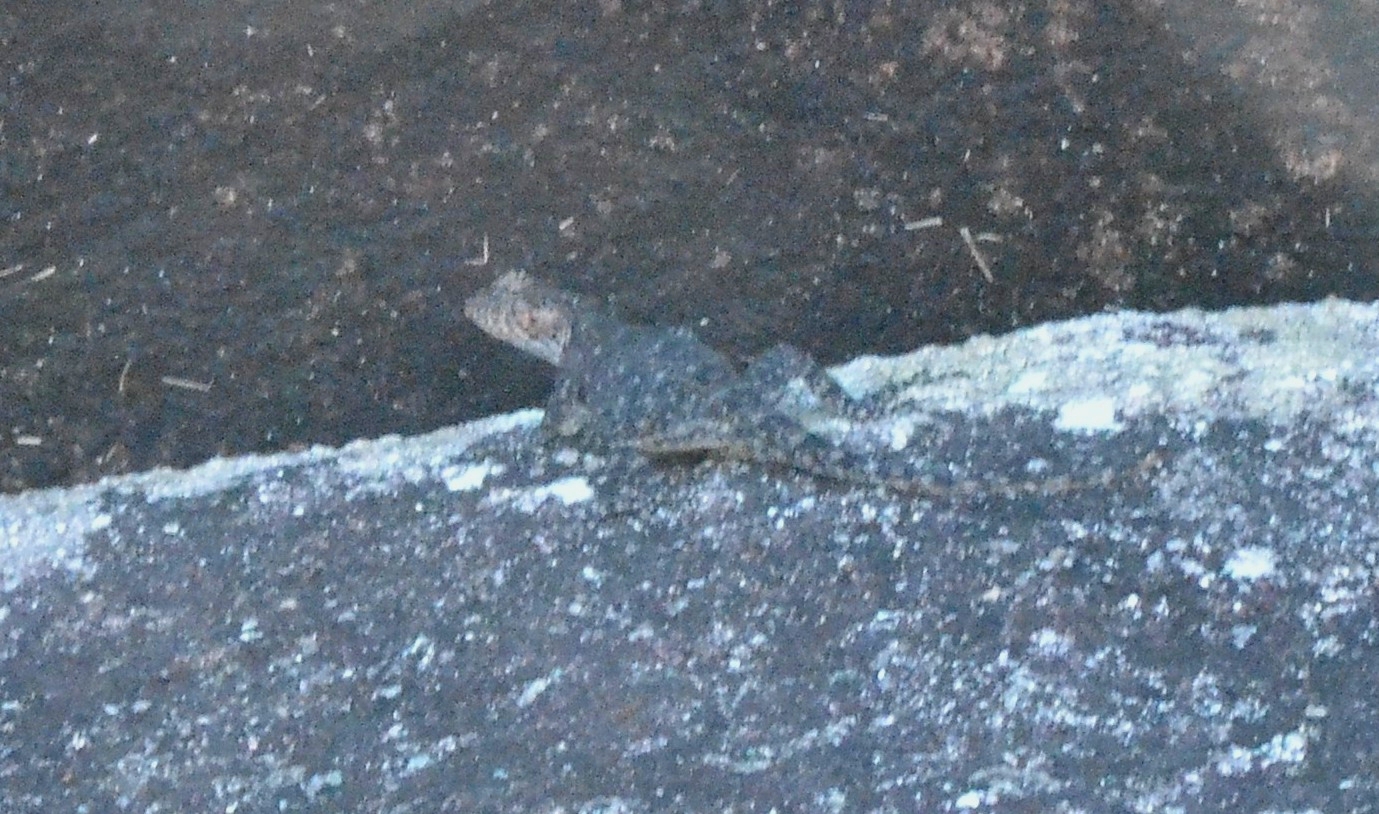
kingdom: Animalia
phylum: Chordata
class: Squamata
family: Agamidae
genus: Psammophilus
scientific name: Psammophilus dorsalis
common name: South indian rock agama
